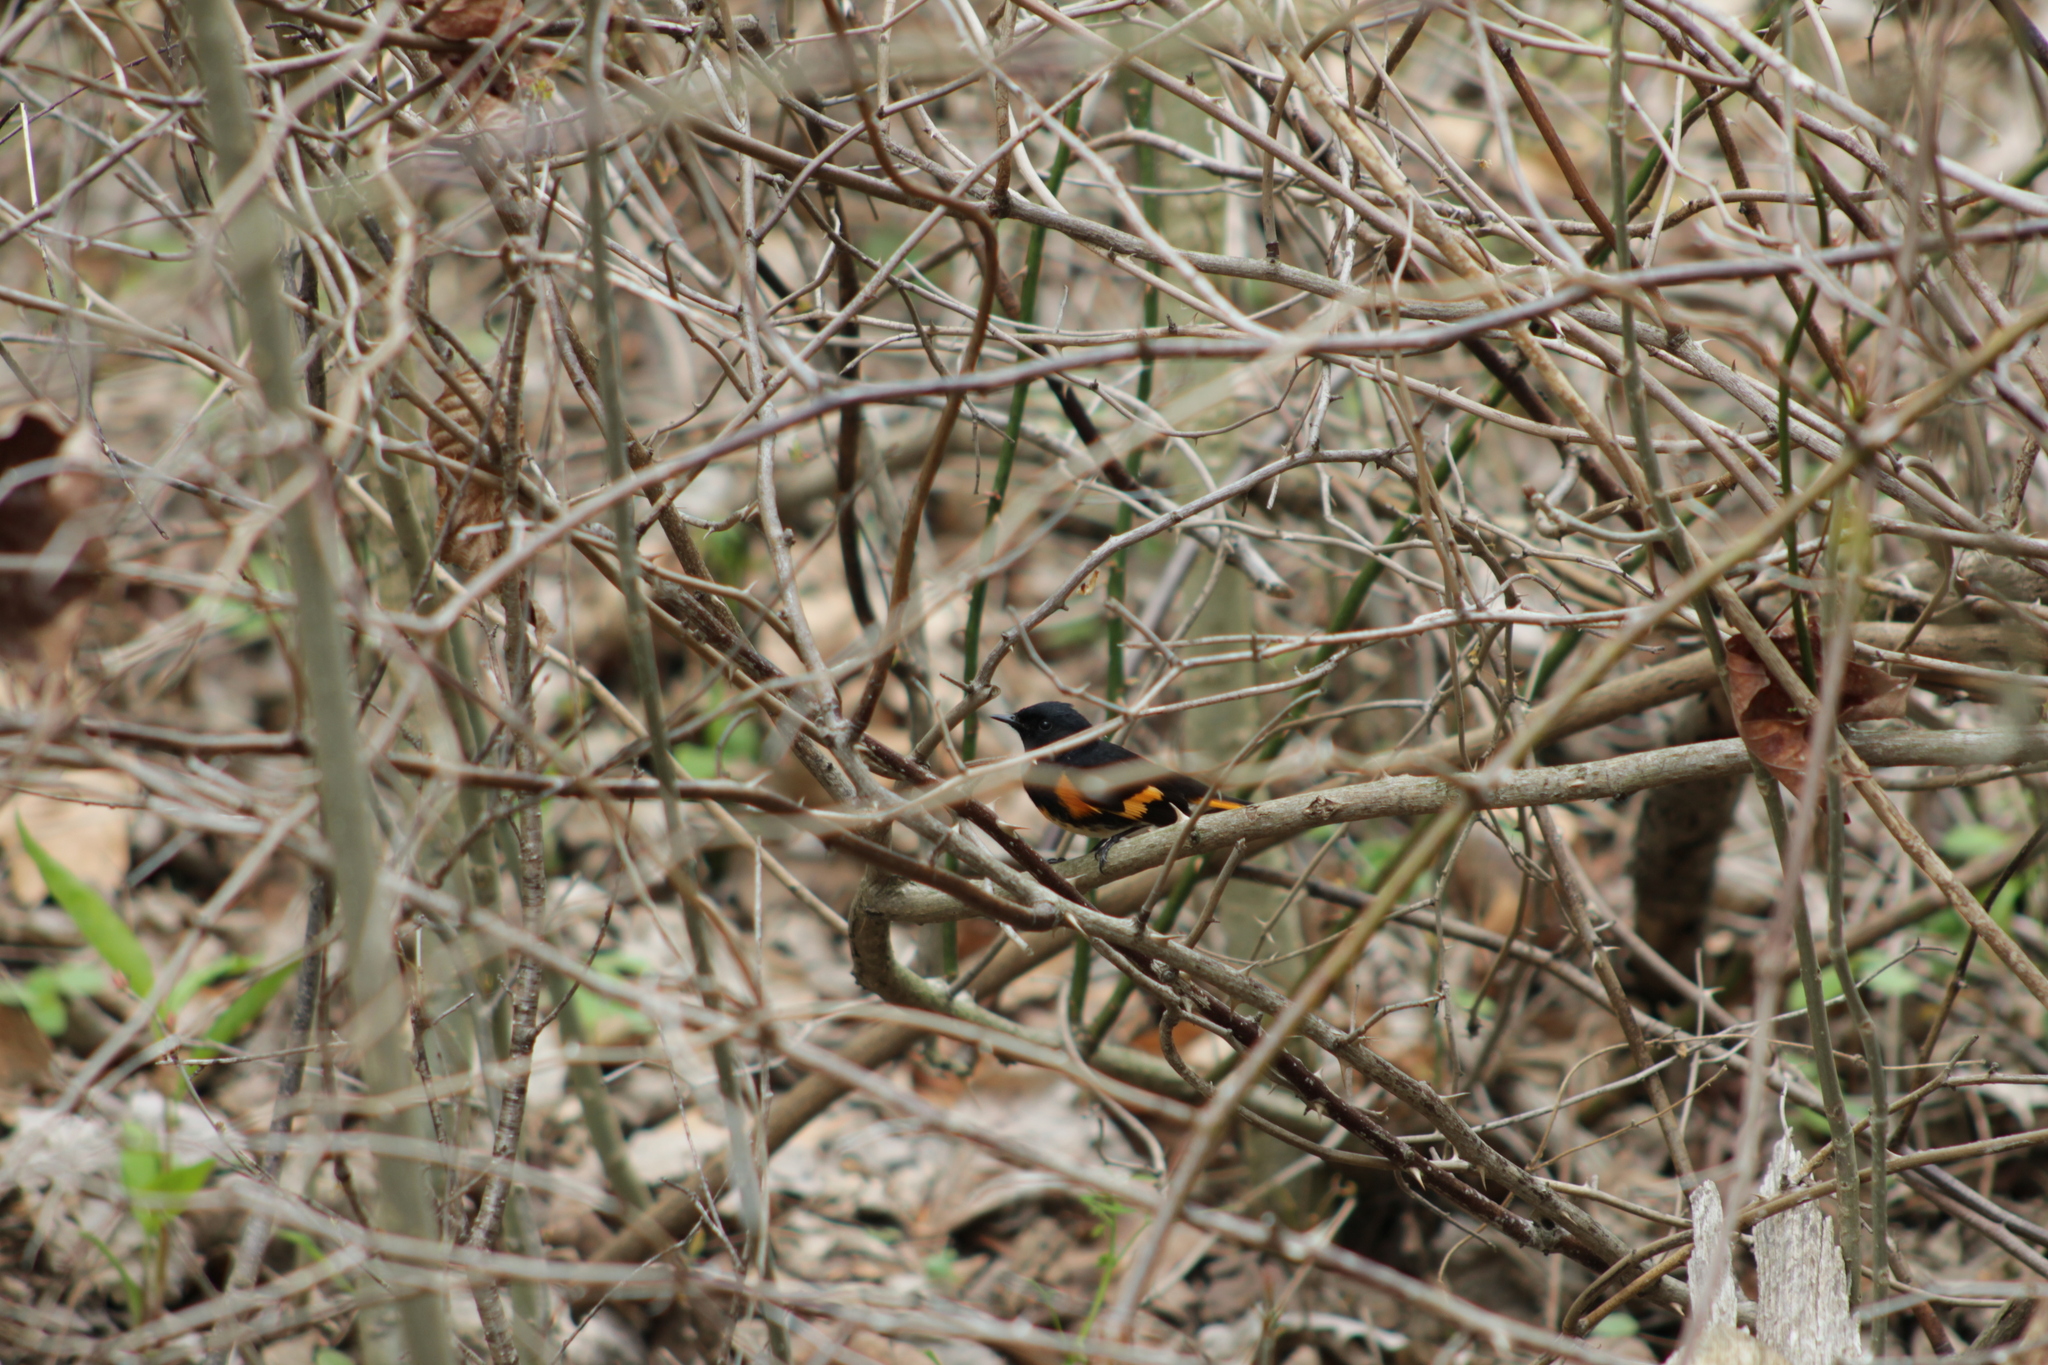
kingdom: Animalia
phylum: Chordata
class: Aves
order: Passeriformes
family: Parulidae
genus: Setophaga
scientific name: Setophaga ruticilla
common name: American redstart
